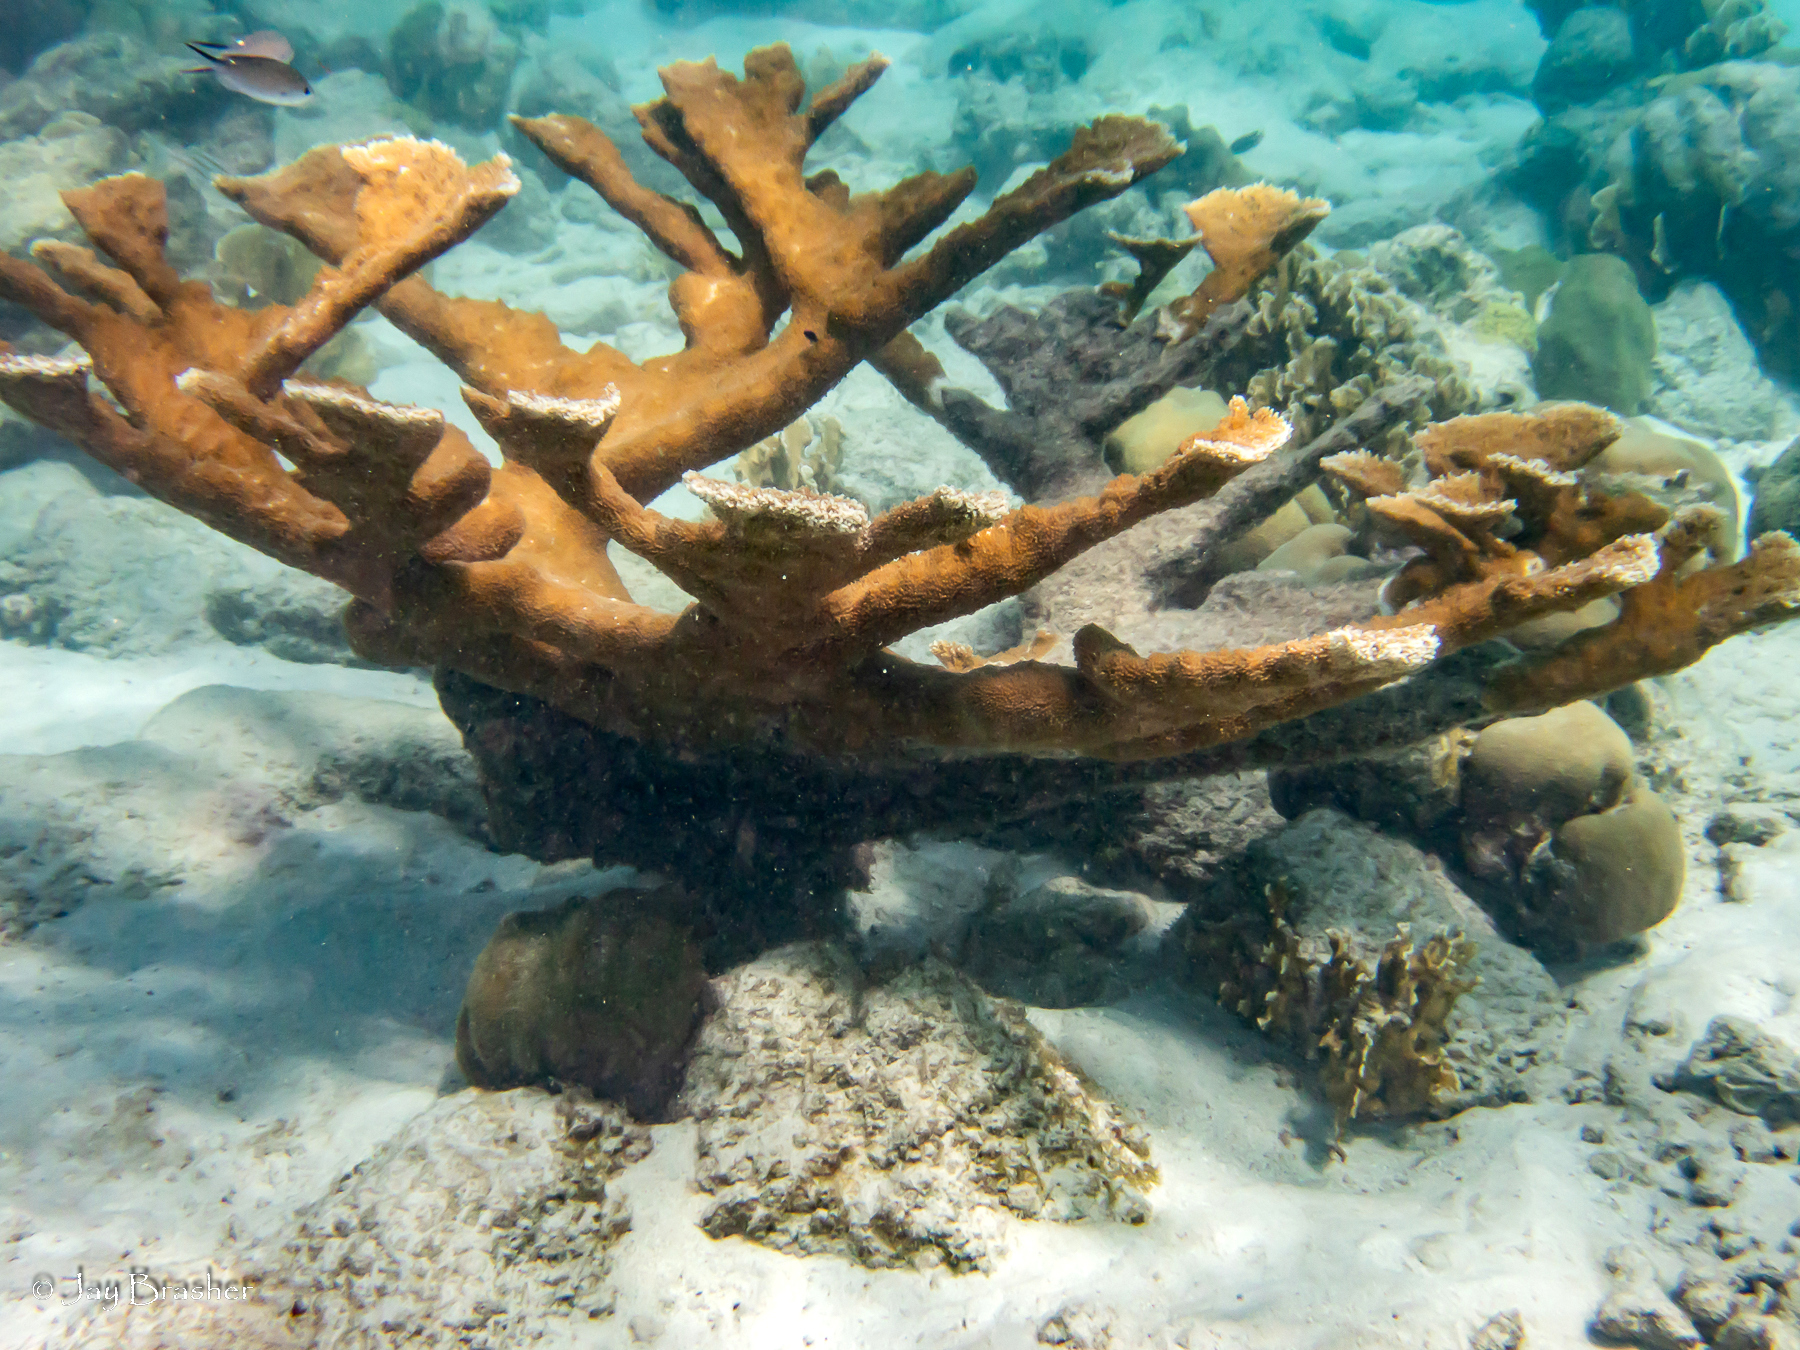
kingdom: Animalia
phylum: Cnidaria
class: Anthozoa
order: Scleractinia
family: Acroporidae
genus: Acropora
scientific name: Acropora palmata
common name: Elkhorn coral
